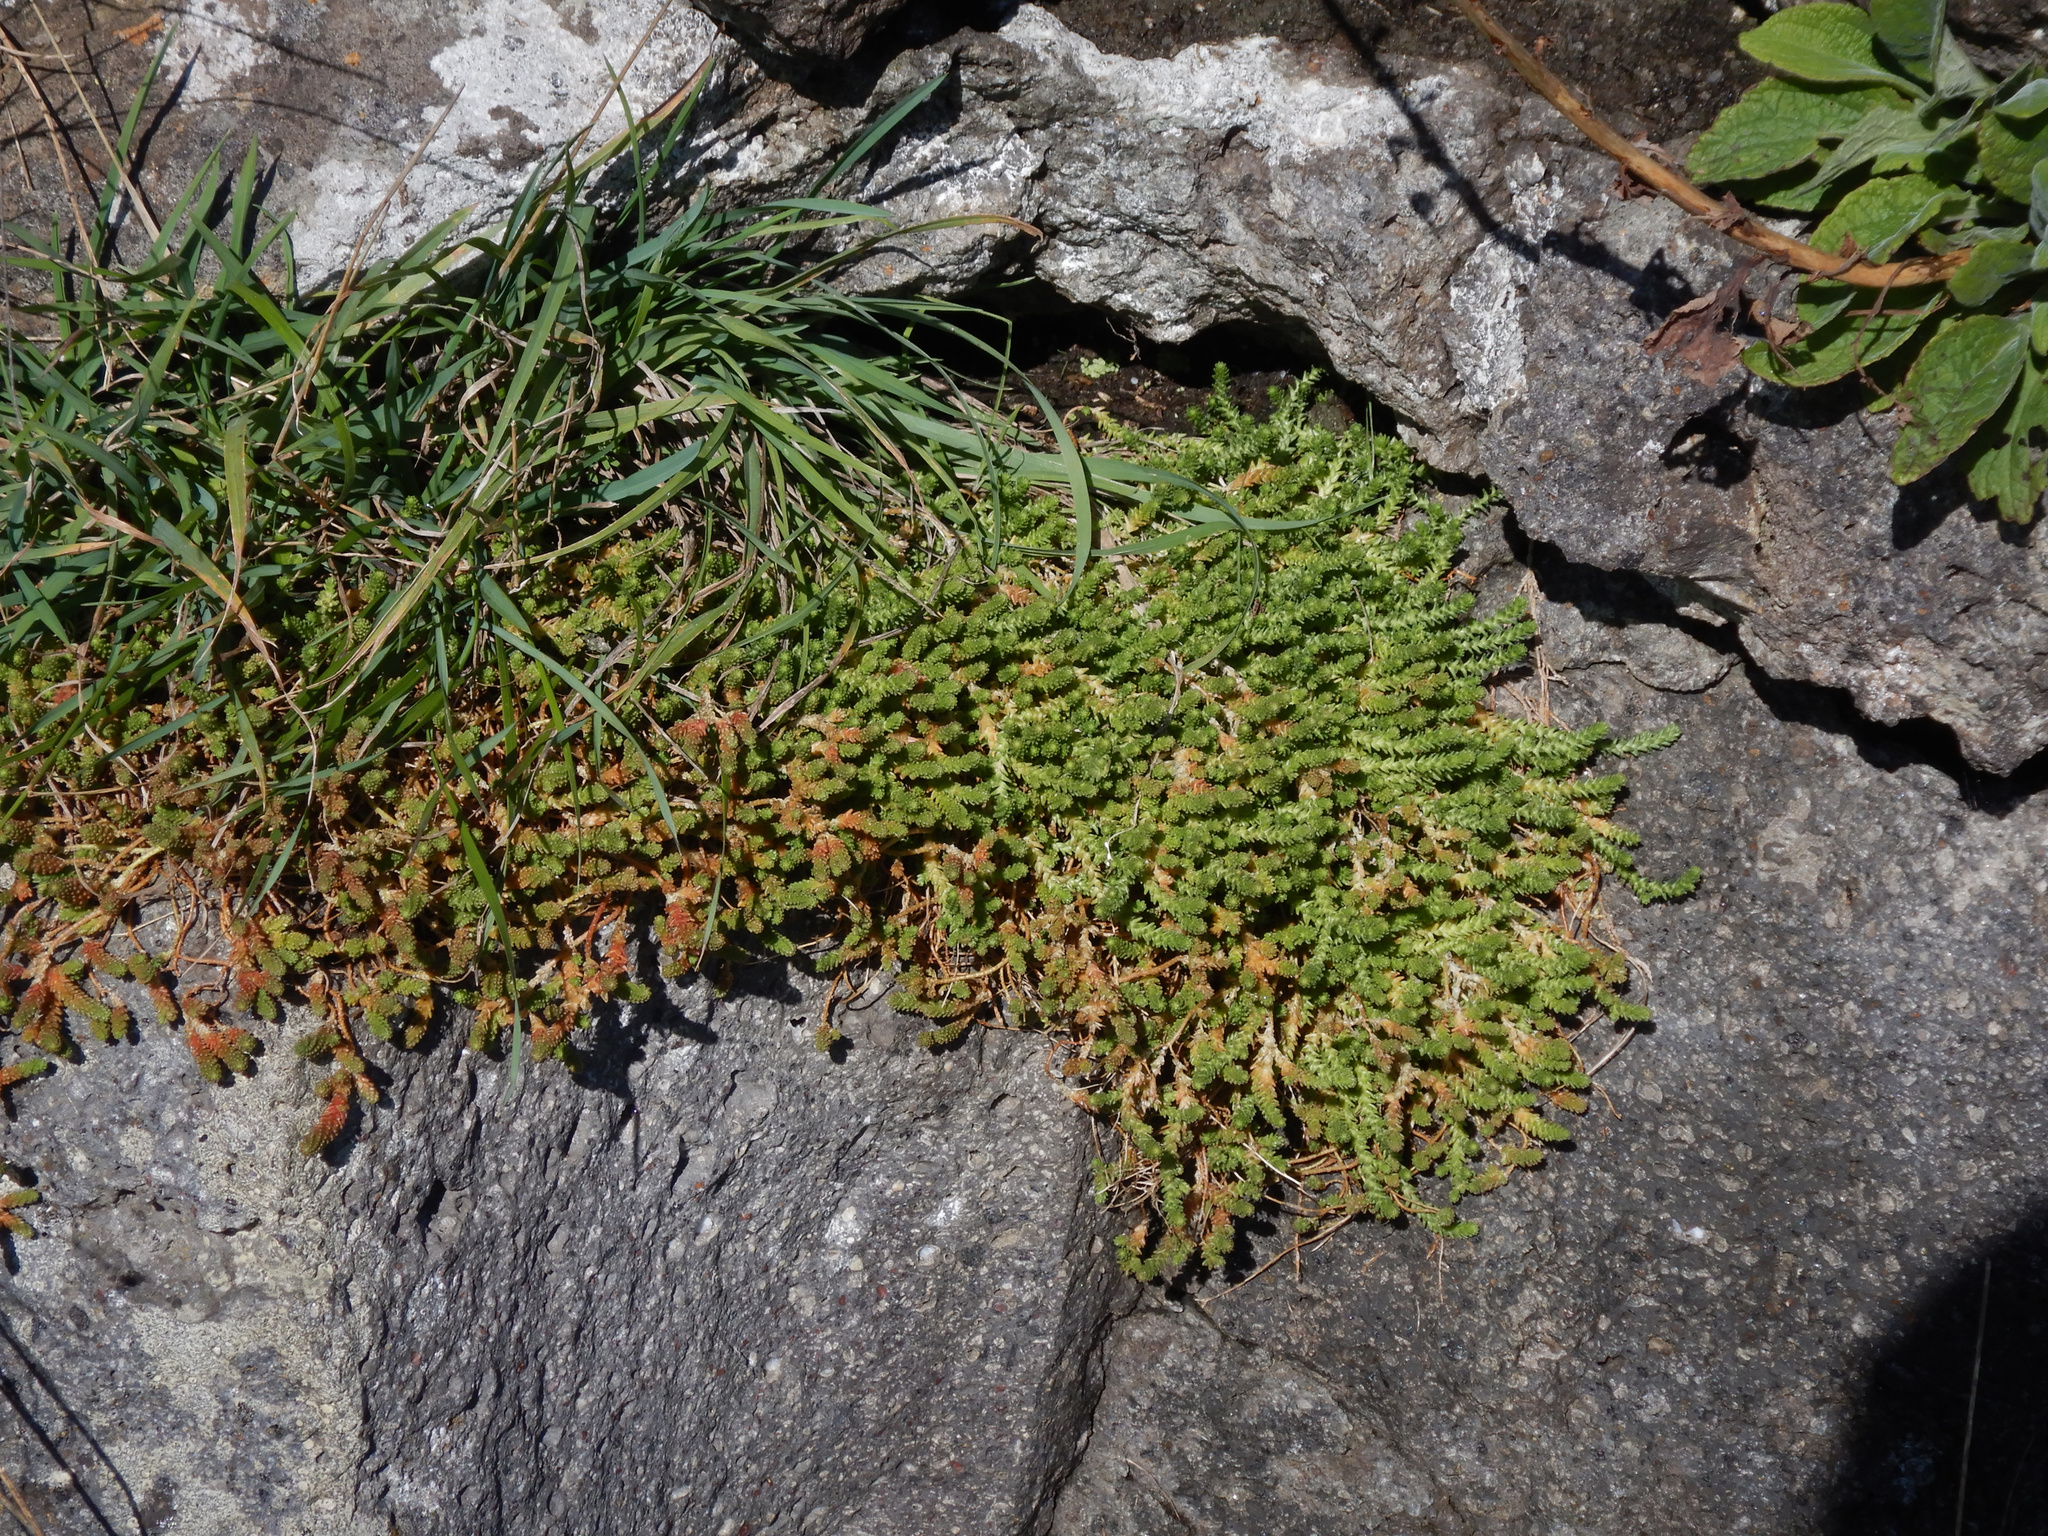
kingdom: Plantae
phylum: Tracheophyta
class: Magnoliopsida
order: Saxifragales
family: Crassulaceae
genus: Sedum
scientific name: Sedum acre
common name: Biting stonecrop
